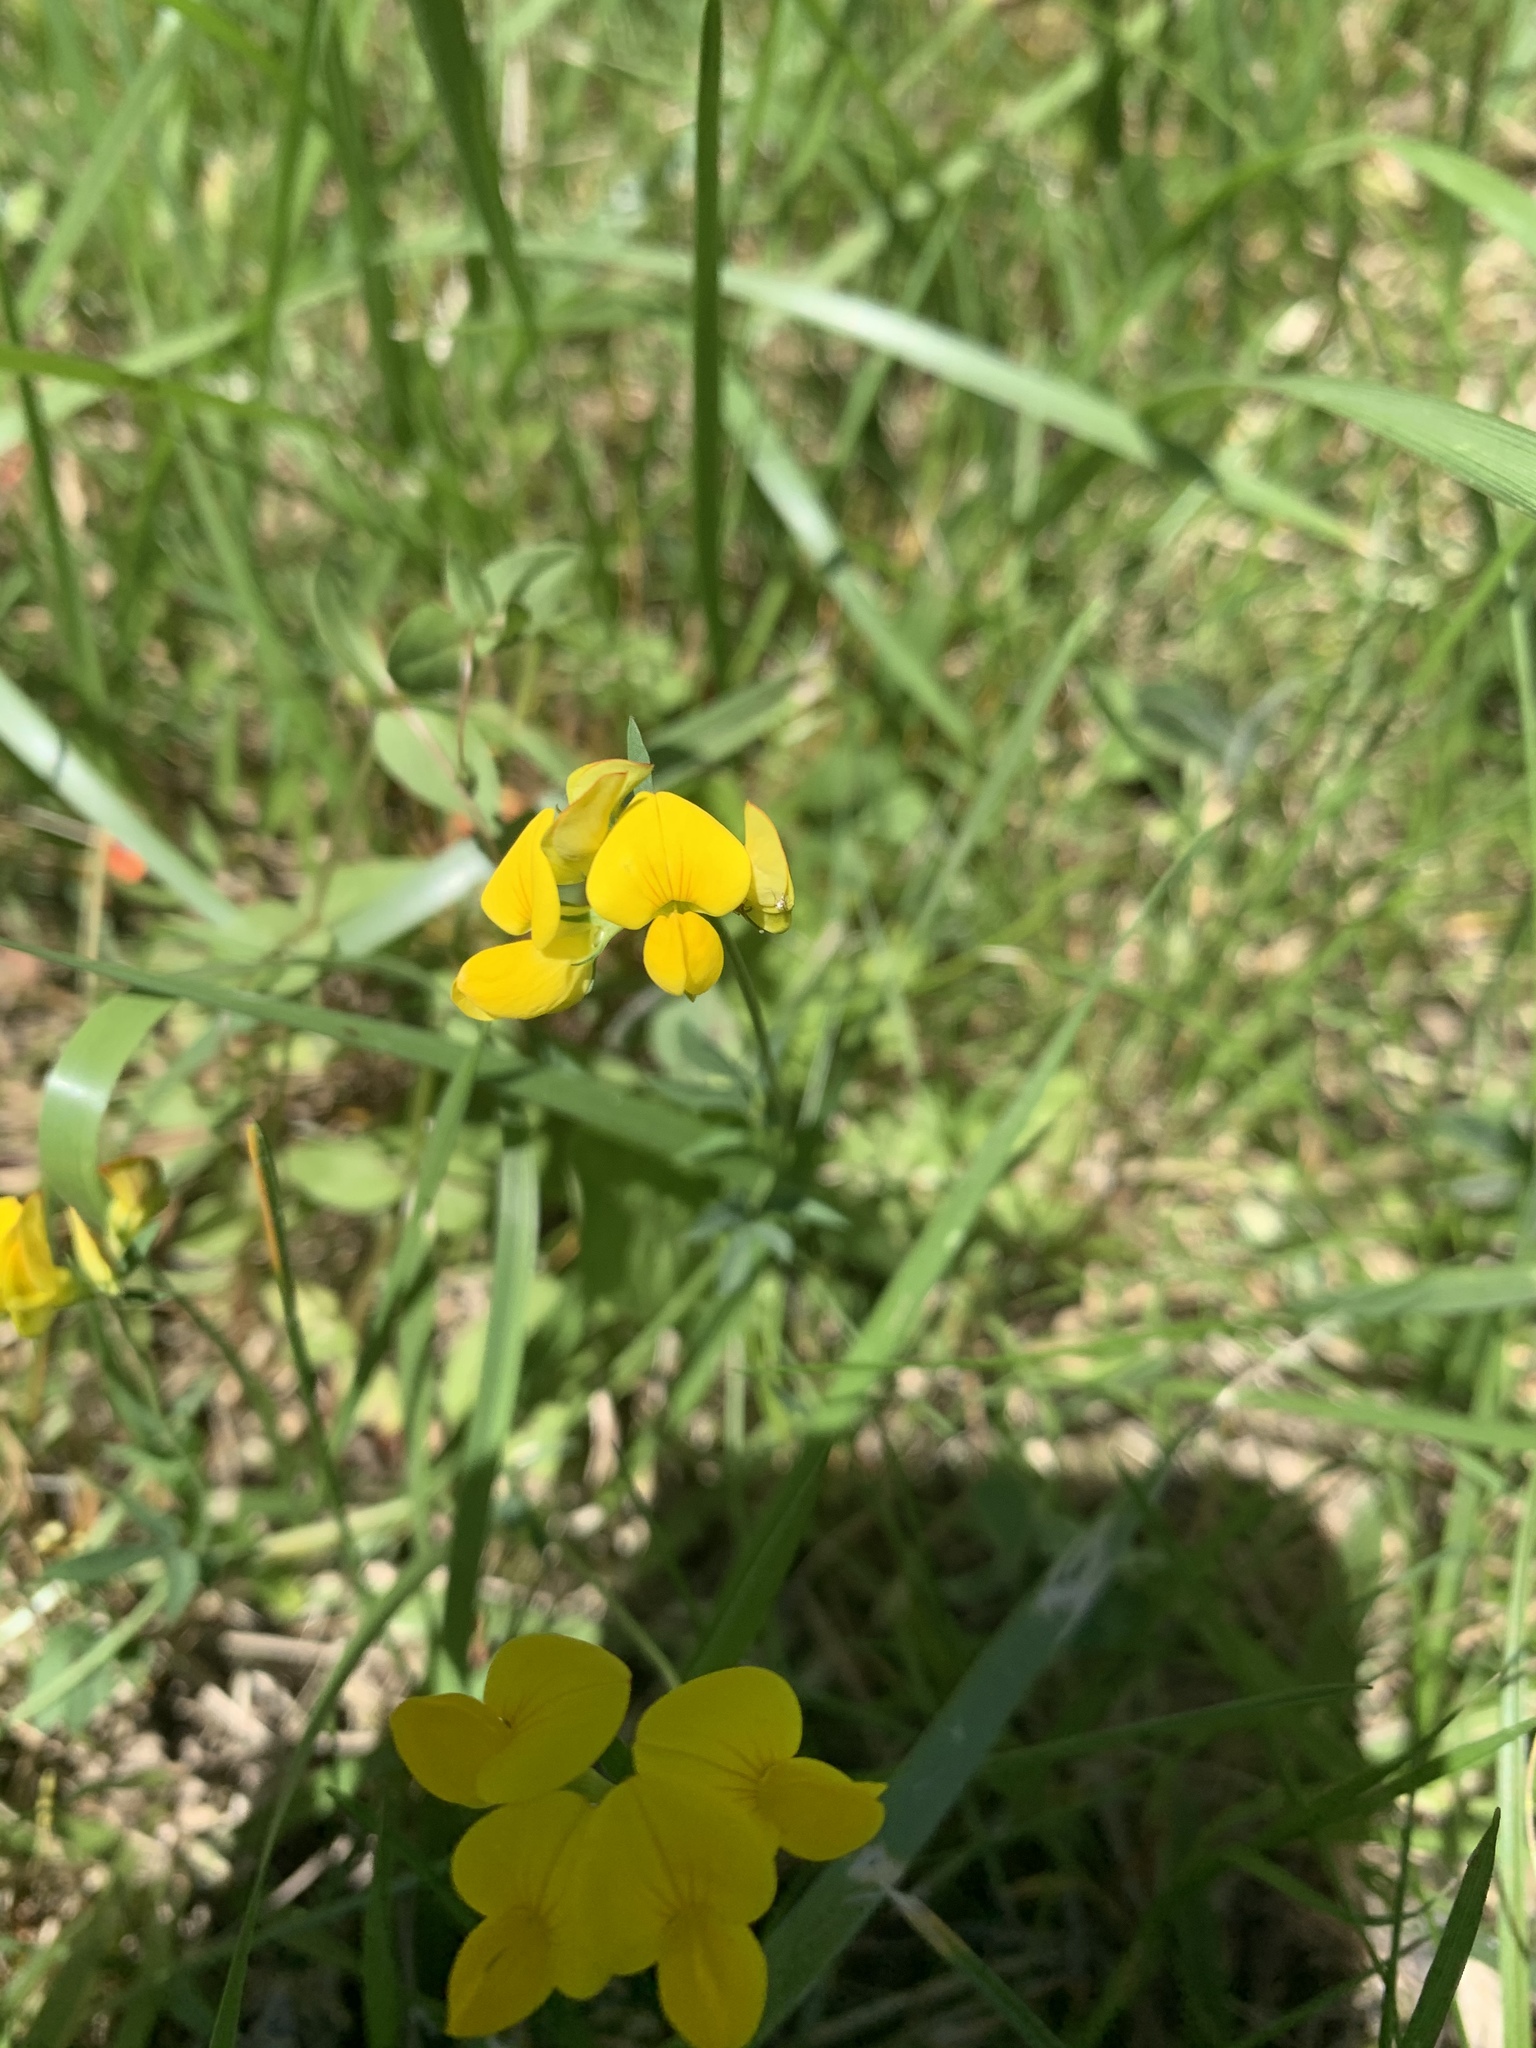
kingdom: Plantae
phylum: Tracheophyta
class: Magnoliopsida
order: Fabales
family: Fabaceae
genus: Lotus
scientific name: Lotus corniculatus
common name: Common bird's-foot-trefoil
